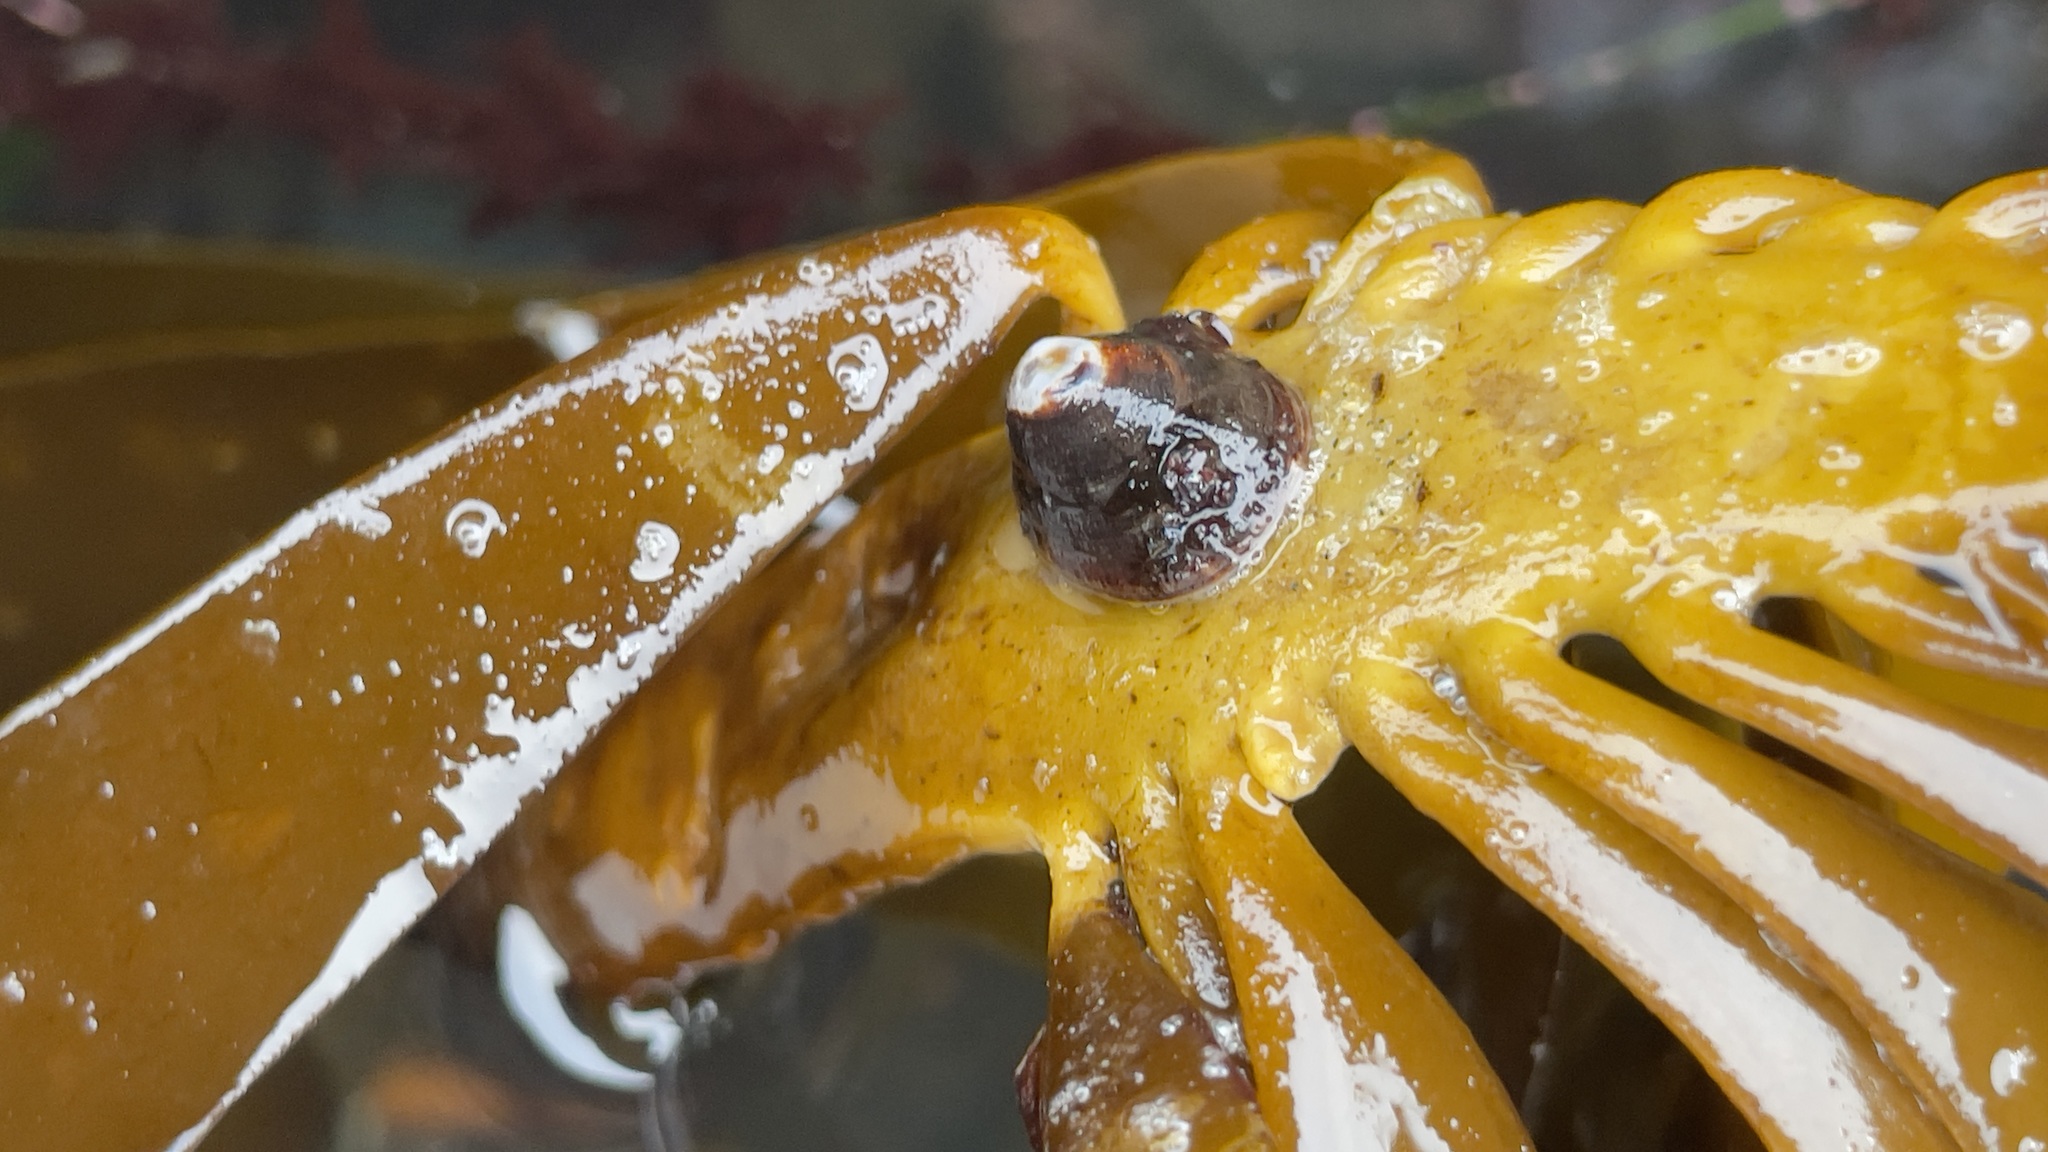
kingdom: Animalia
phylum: Echinodermata
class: Asteroidea
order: Forcipulatida
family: Asteriidae
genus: Pisaster
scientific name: Pisaster ochraceus
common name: Ochre stars
